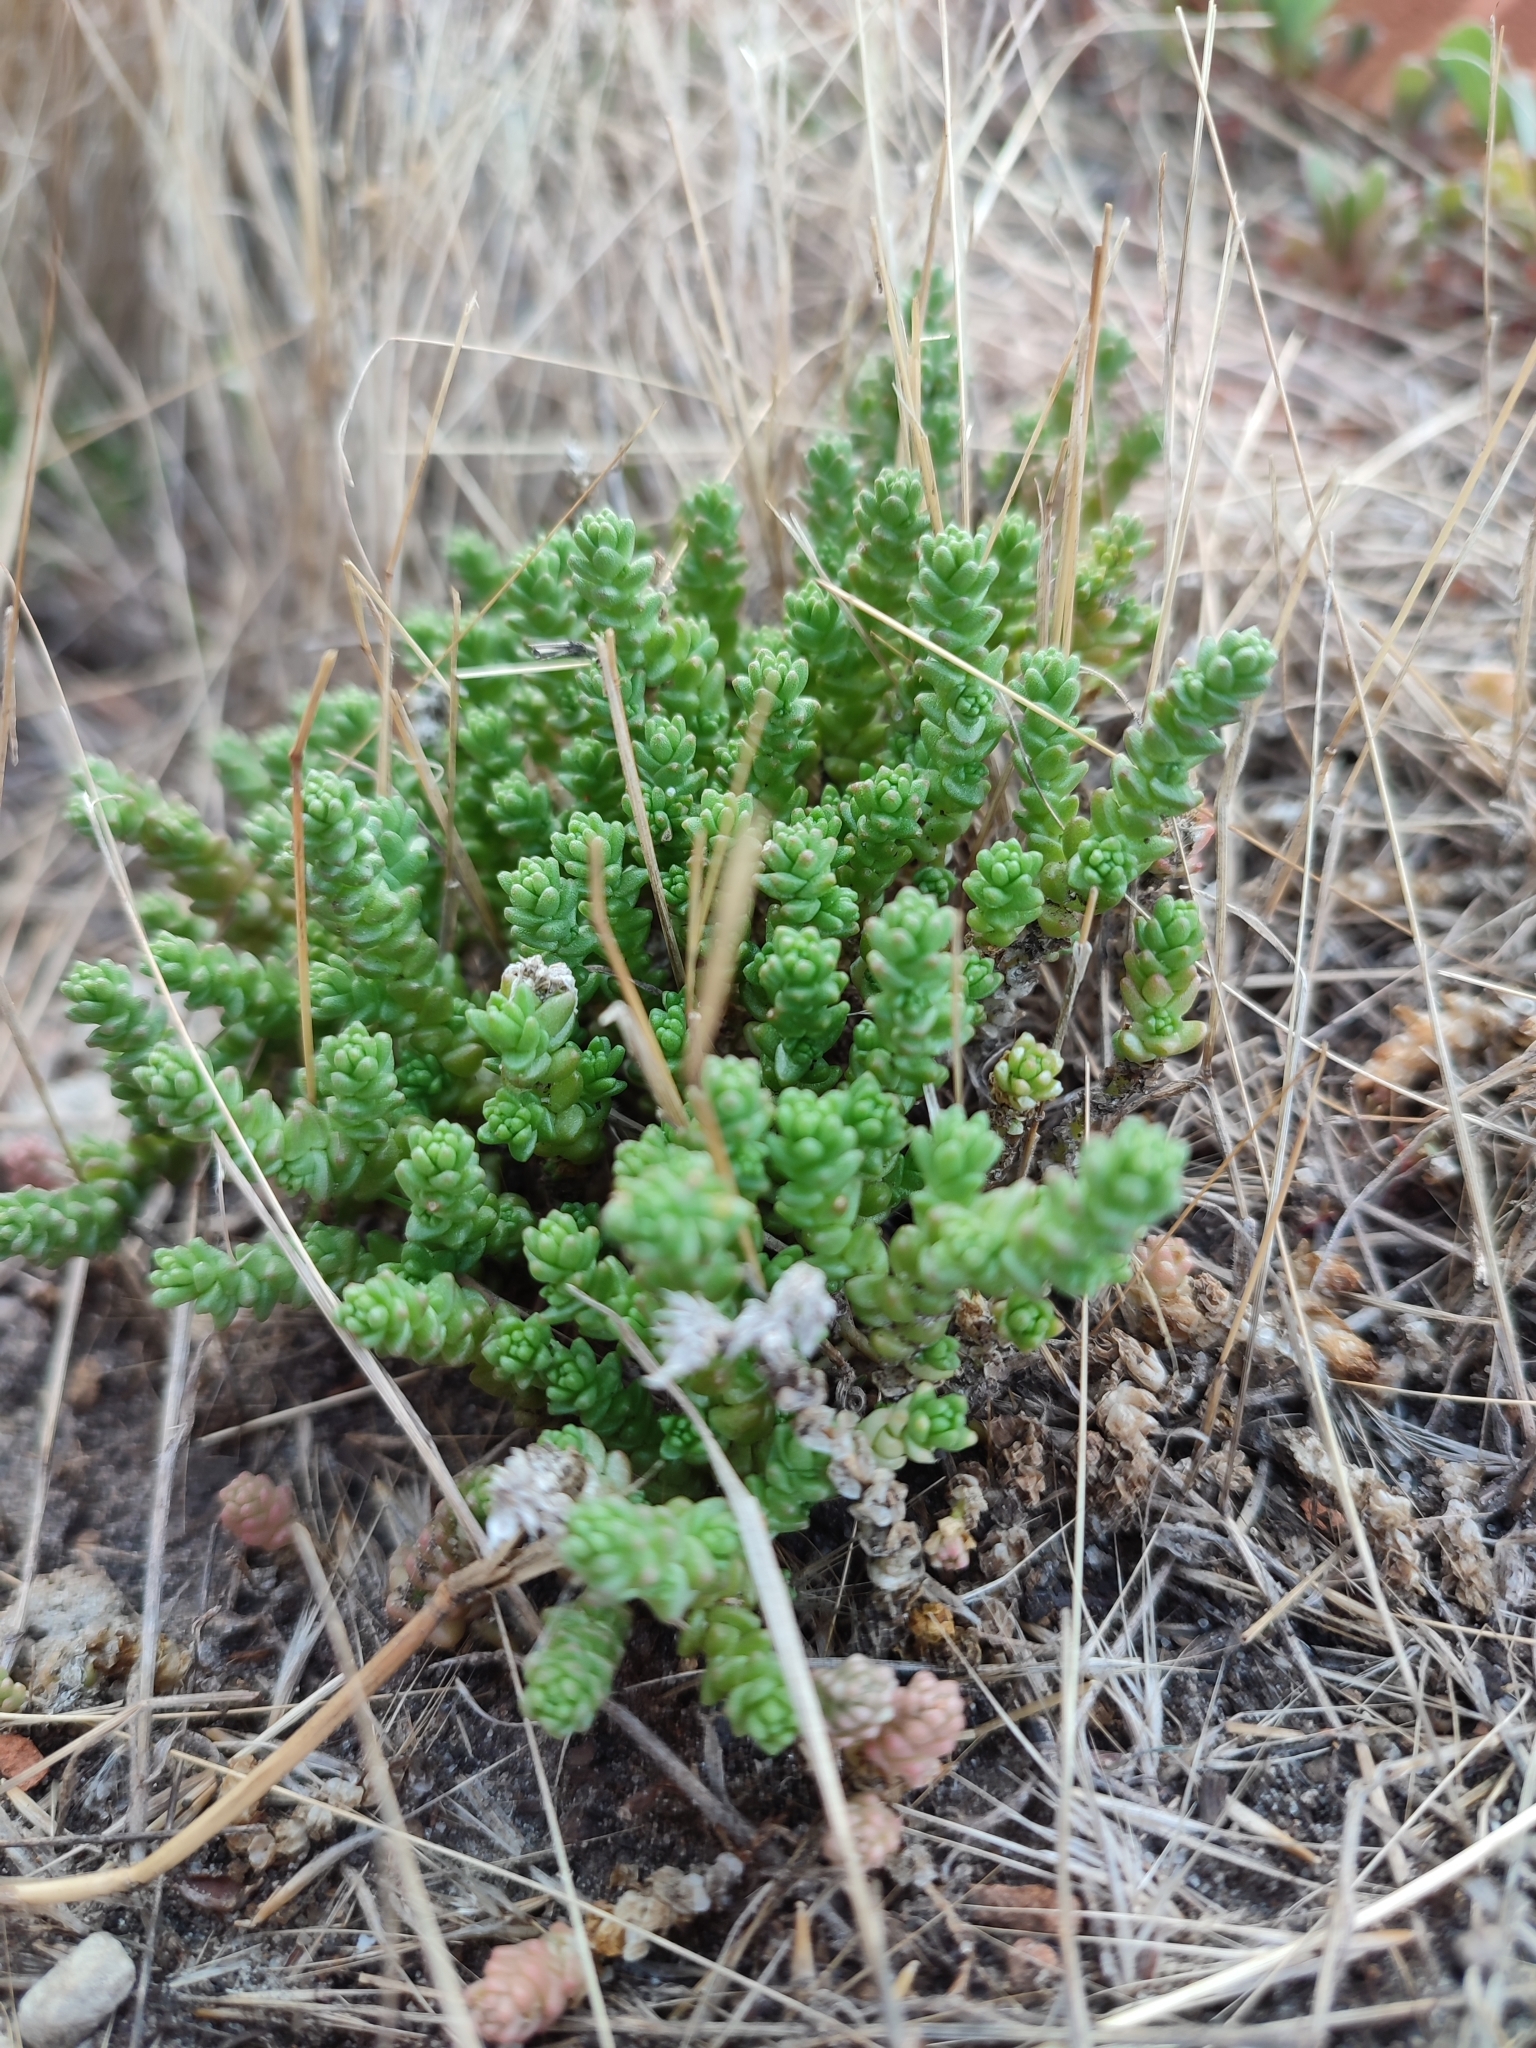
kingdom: Plantae
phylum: Tracheophyta
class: Magnoliopsida
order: Saxifragales
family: Crassulaceae
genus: Sedum
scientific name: Sedum acre
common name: Biting stonecrop
